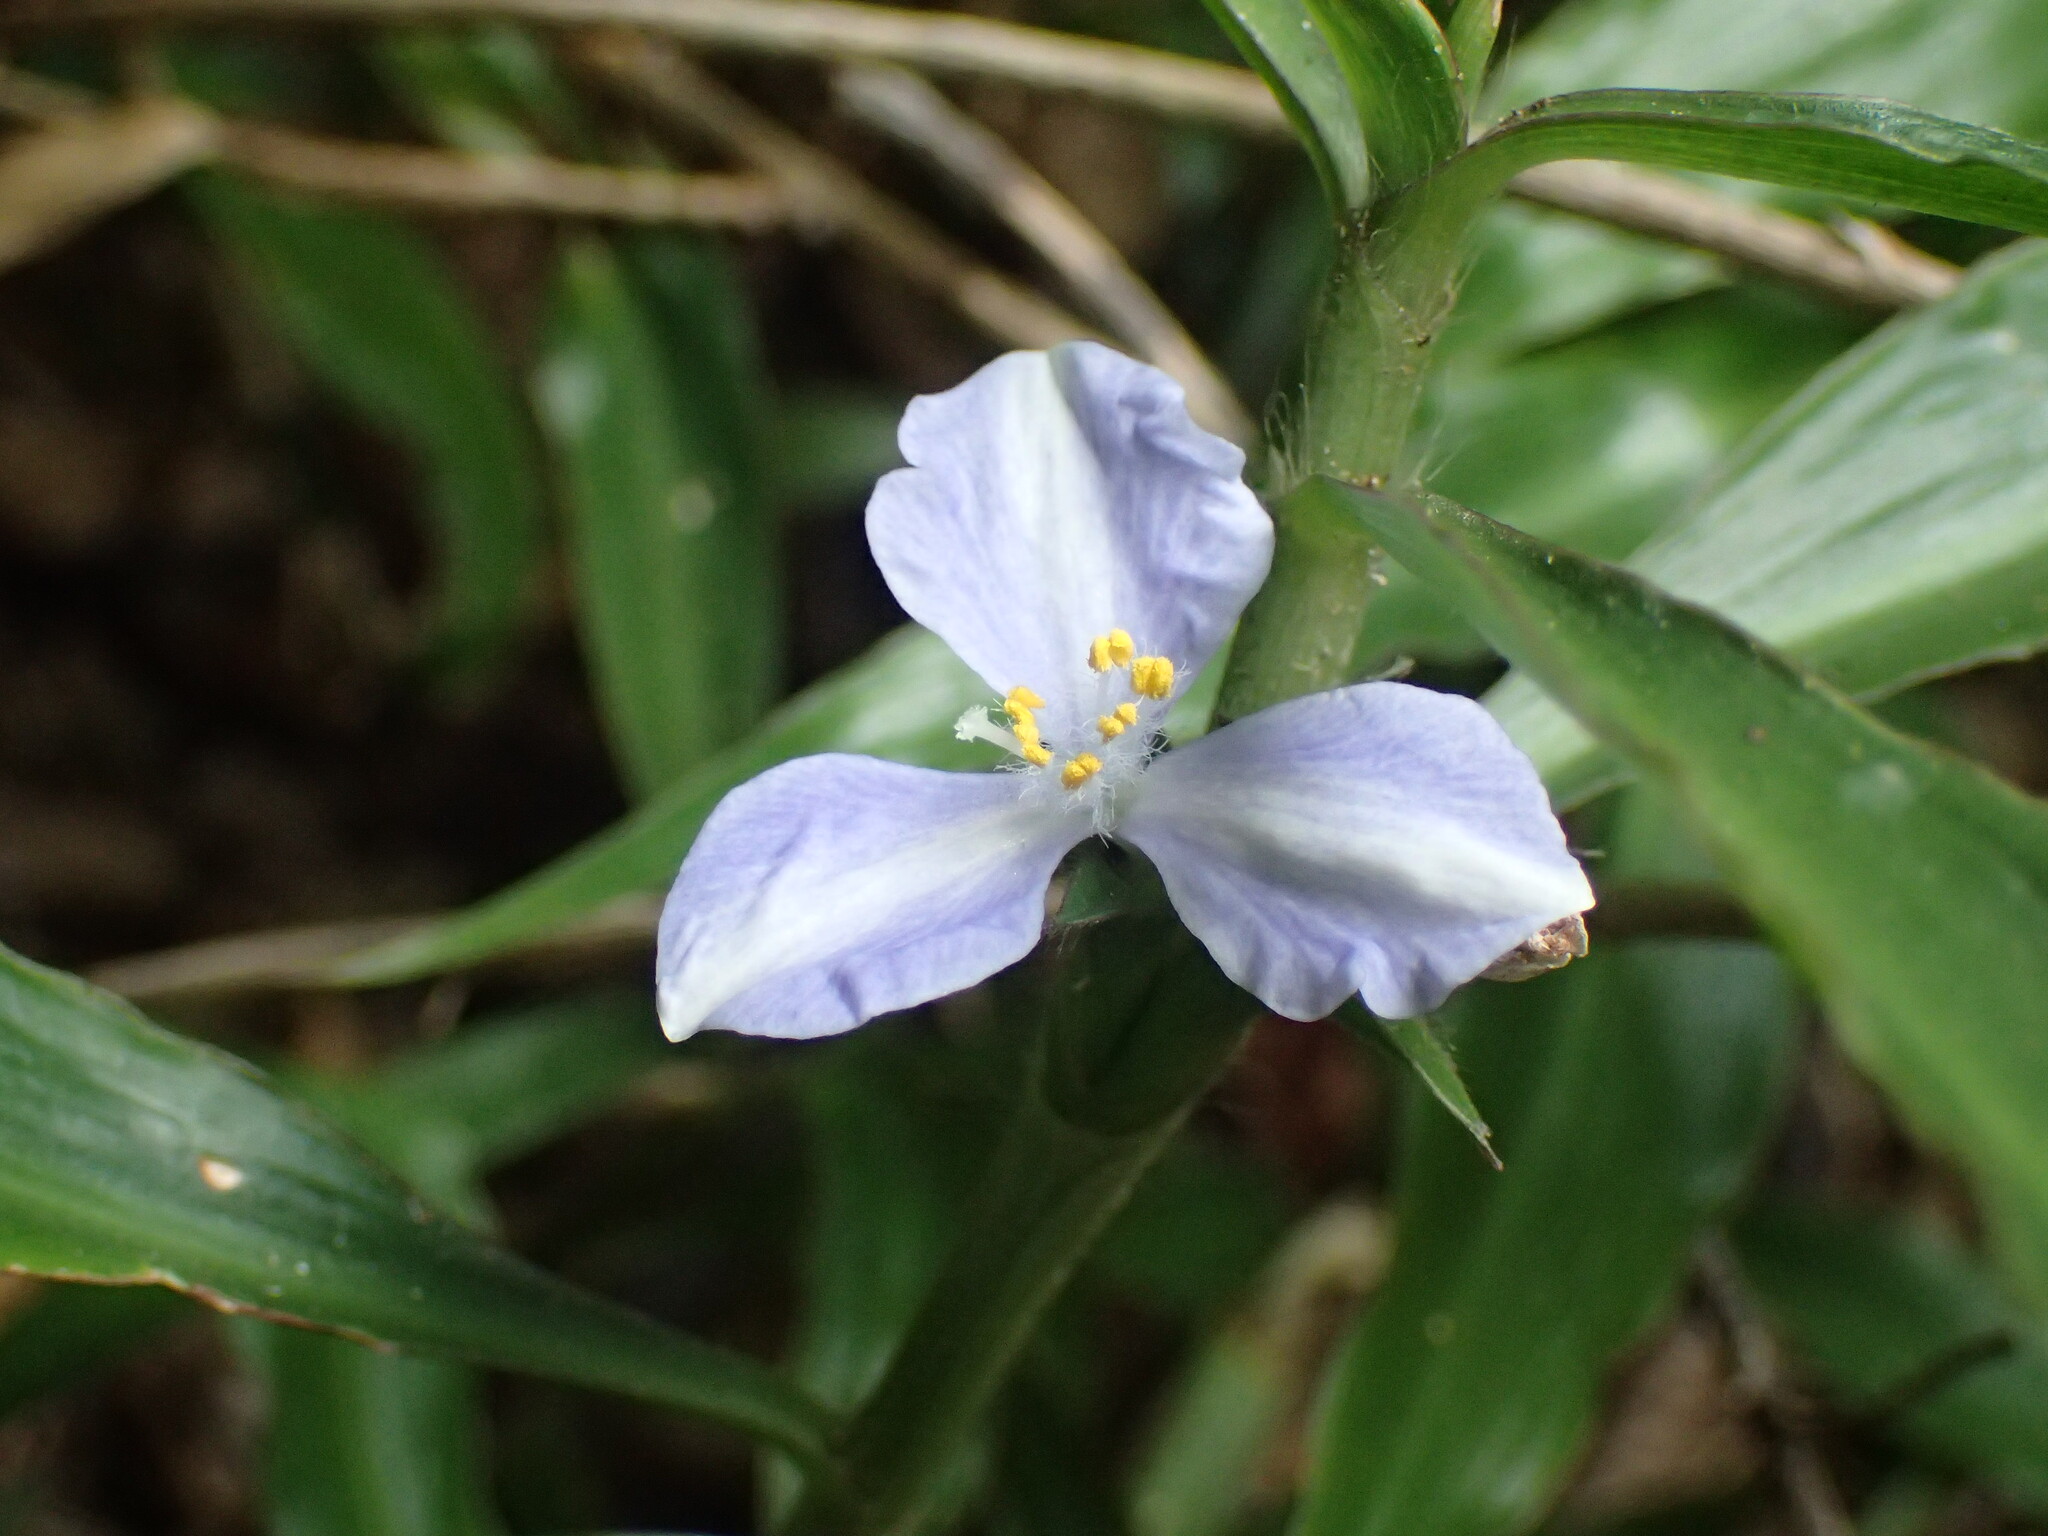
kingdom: Plantae
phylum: Tracheophyta
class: Liliopsida
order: Commelinales
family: Commelinaceae
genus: Coleotrype
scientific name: Coleotrype natalensis
